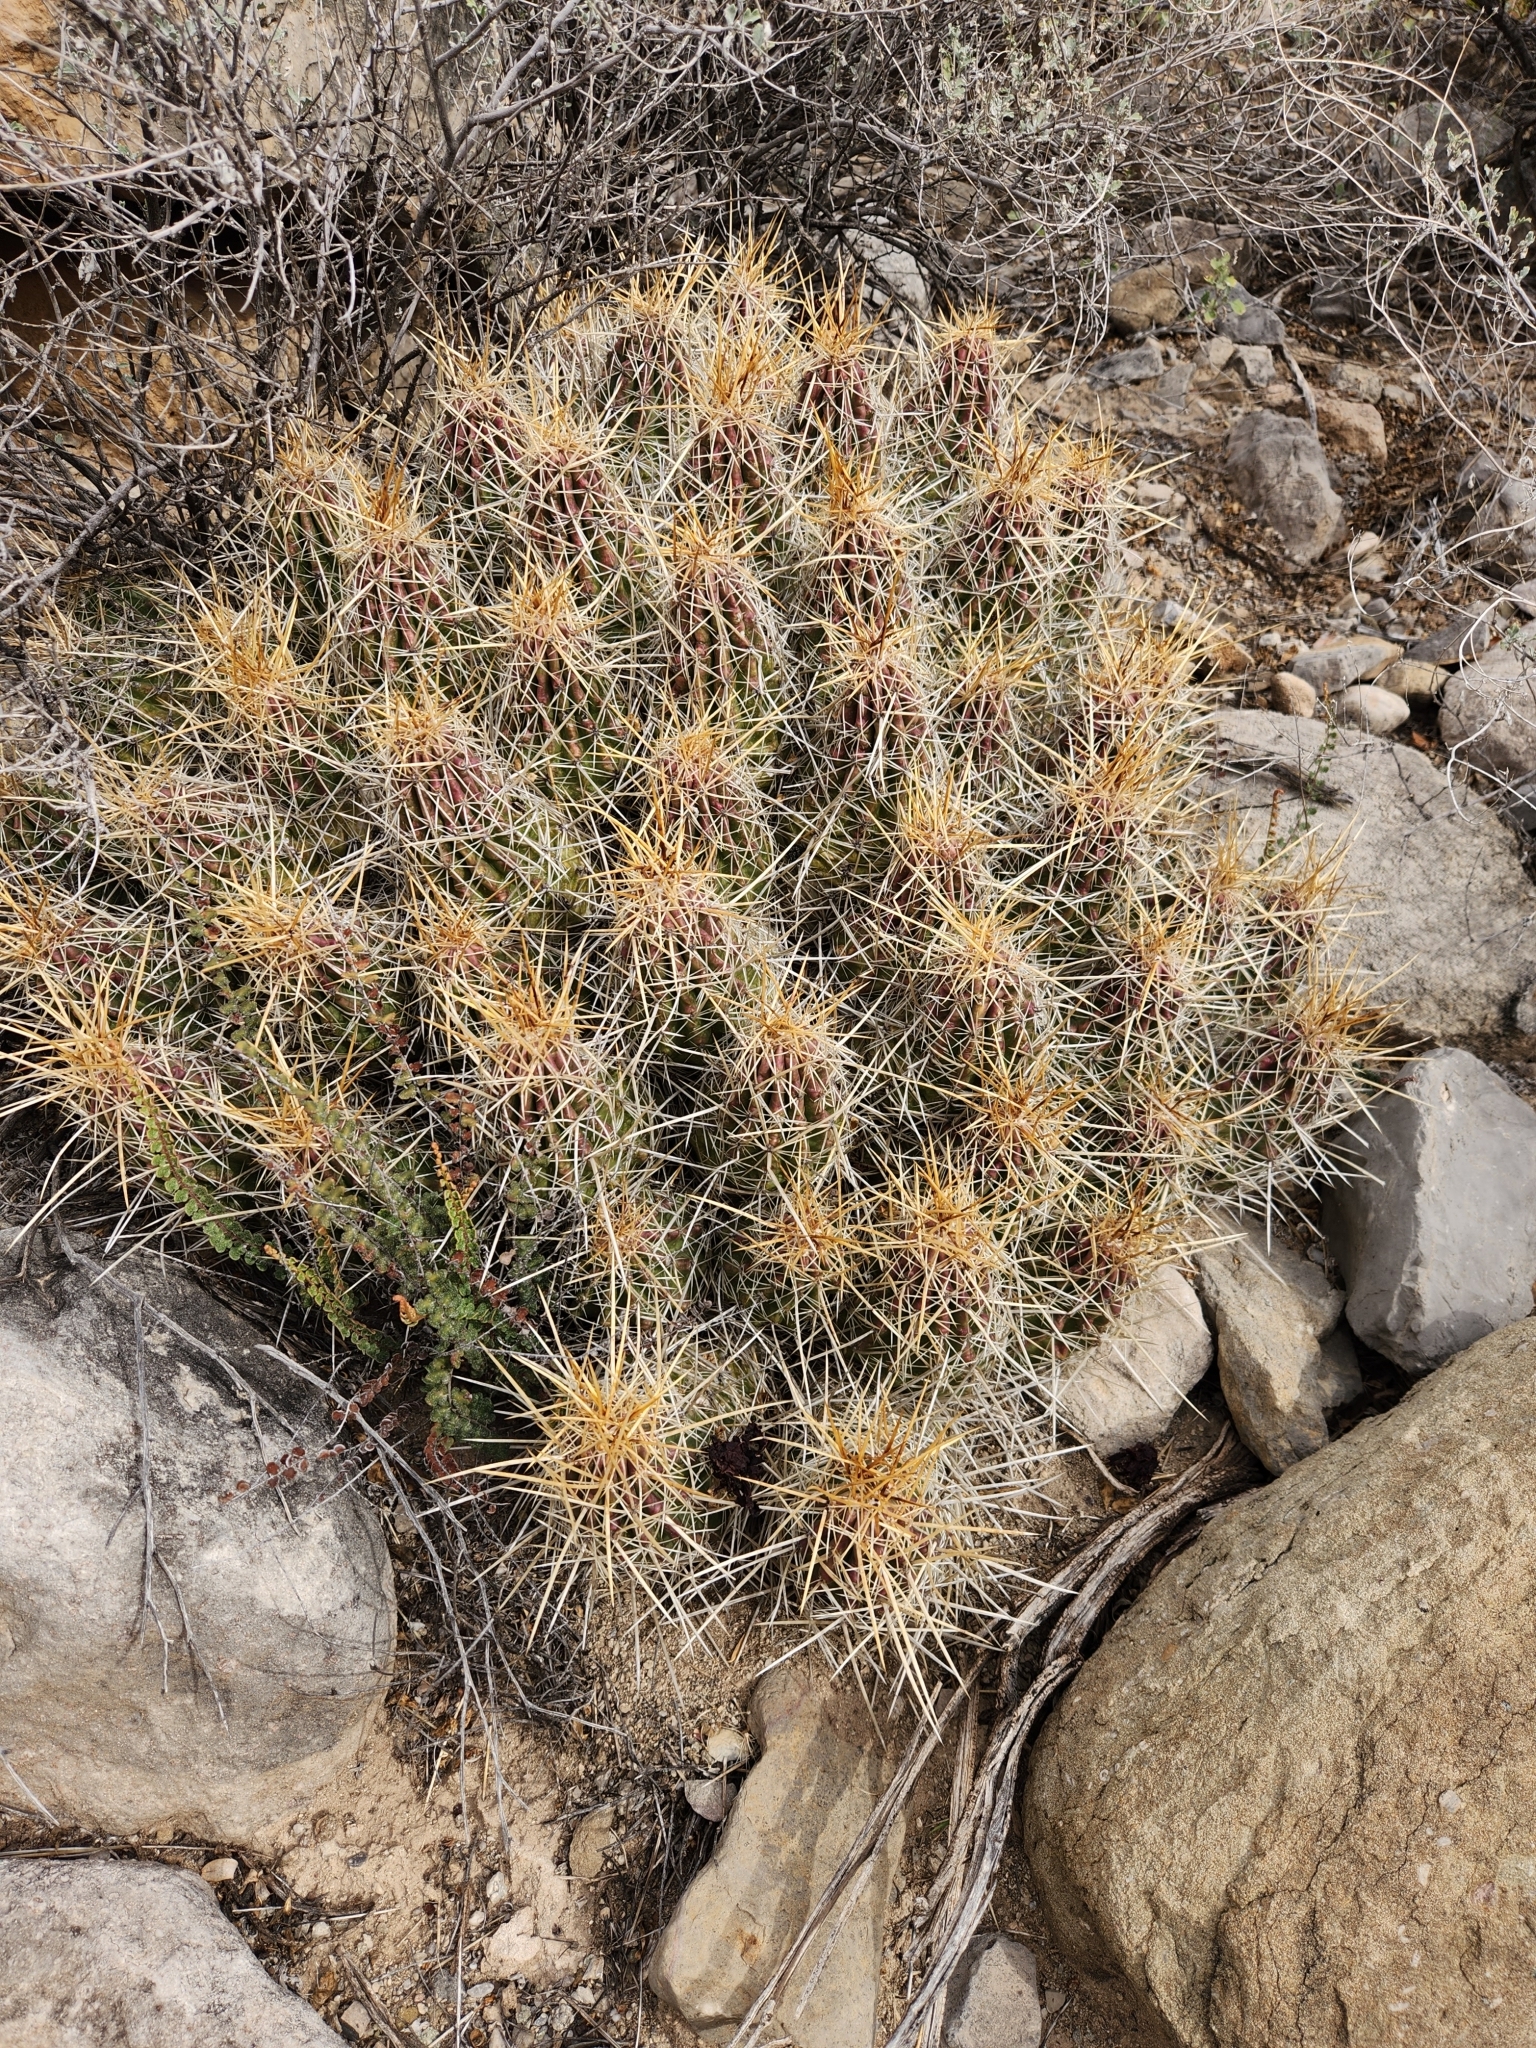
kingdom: Plantae
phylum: Tracheophyta
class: Magnoliopsida
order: Caryophyllales
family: Cactaceae
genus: Echinocereus
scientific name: Echinocereus stramineus
